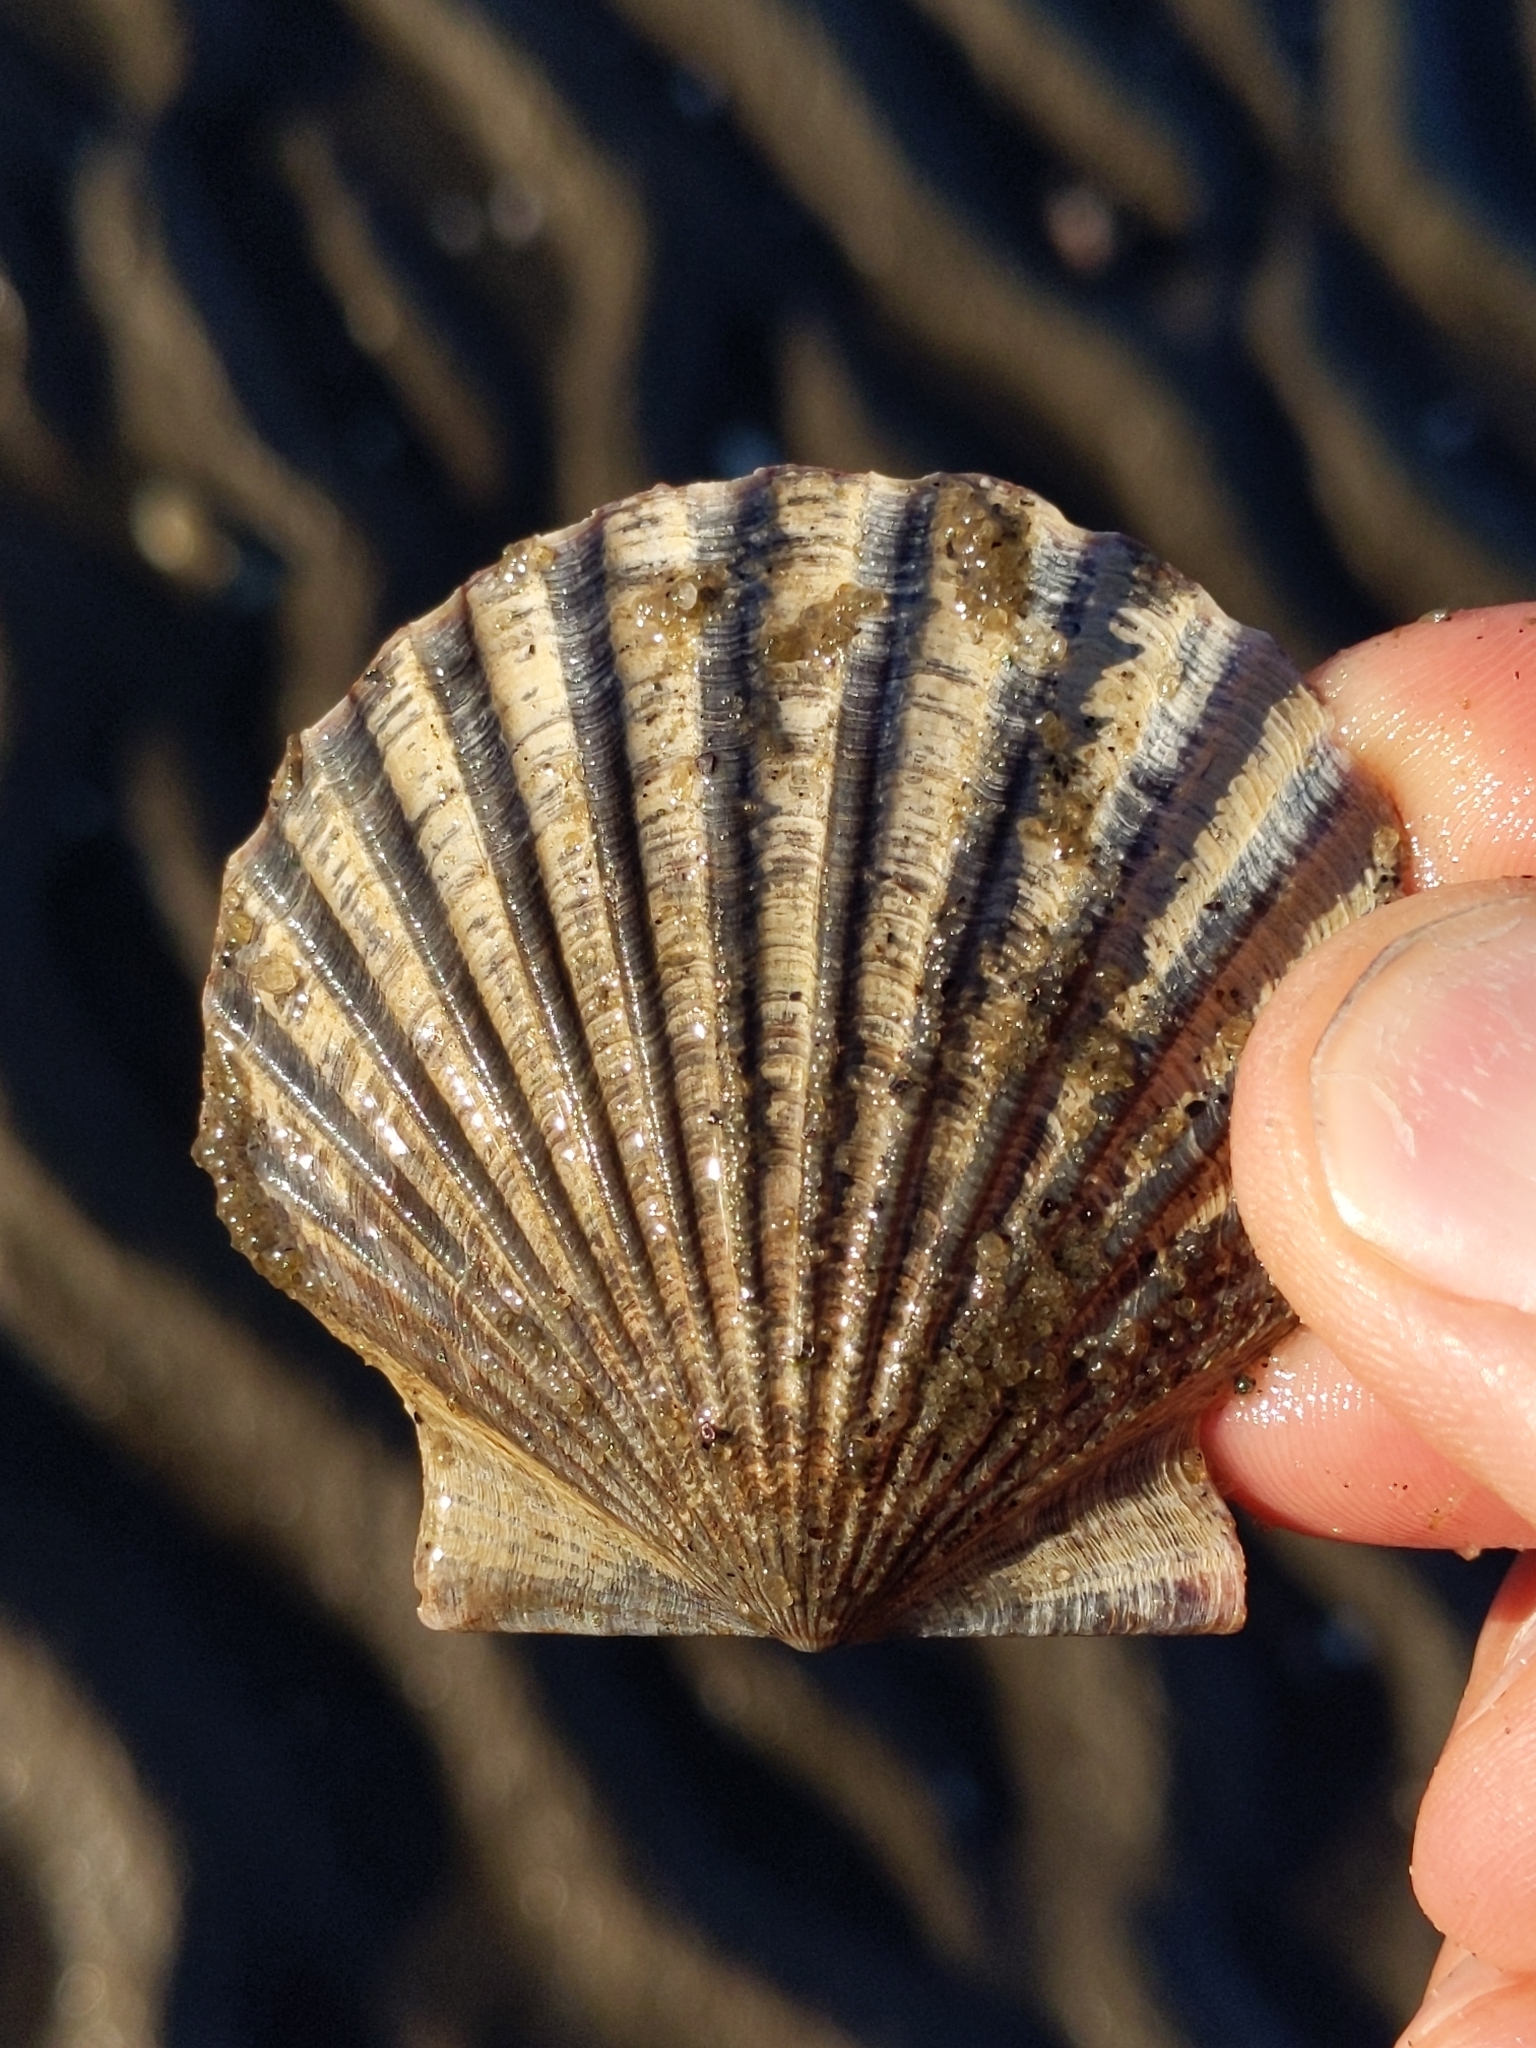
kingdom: Animalia
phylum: Mollusca
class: Bivalvia
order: Pectinida
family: Pectinidae
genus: Argopecten
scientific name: Argopecten irradians
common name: Atlantic bay scallop
